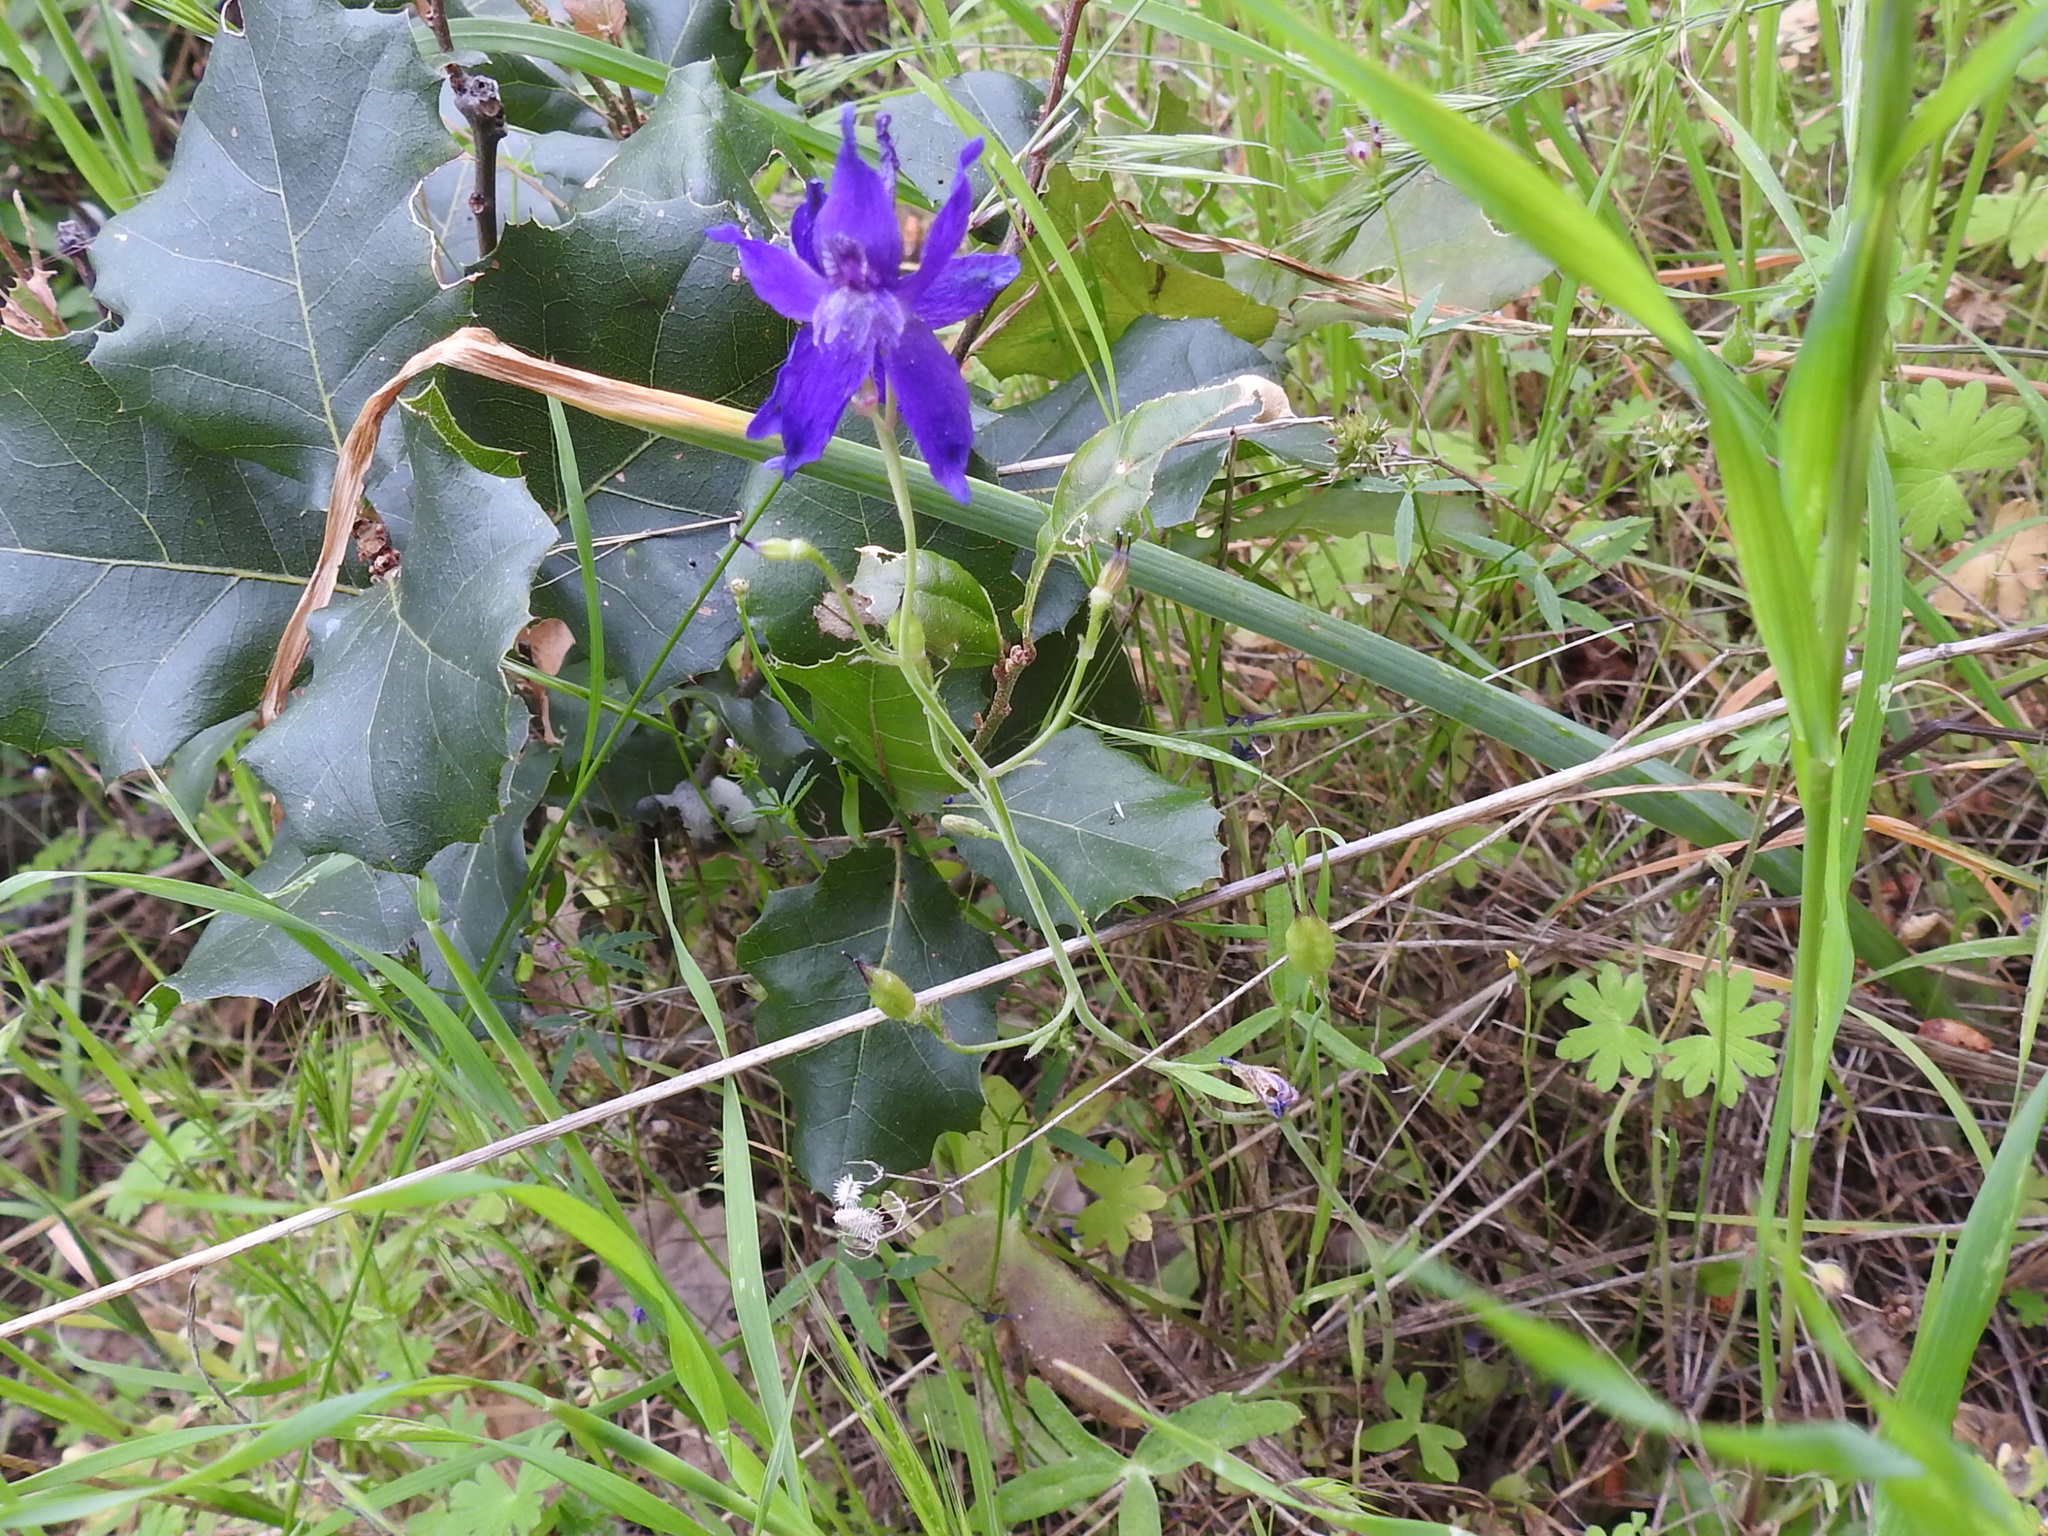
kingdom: Plantae
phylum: Tracheophyta
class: Magnoliopsida
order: Ranunculales
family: Ranunculaceae
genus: Delphinium
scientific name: Delphinium patens
